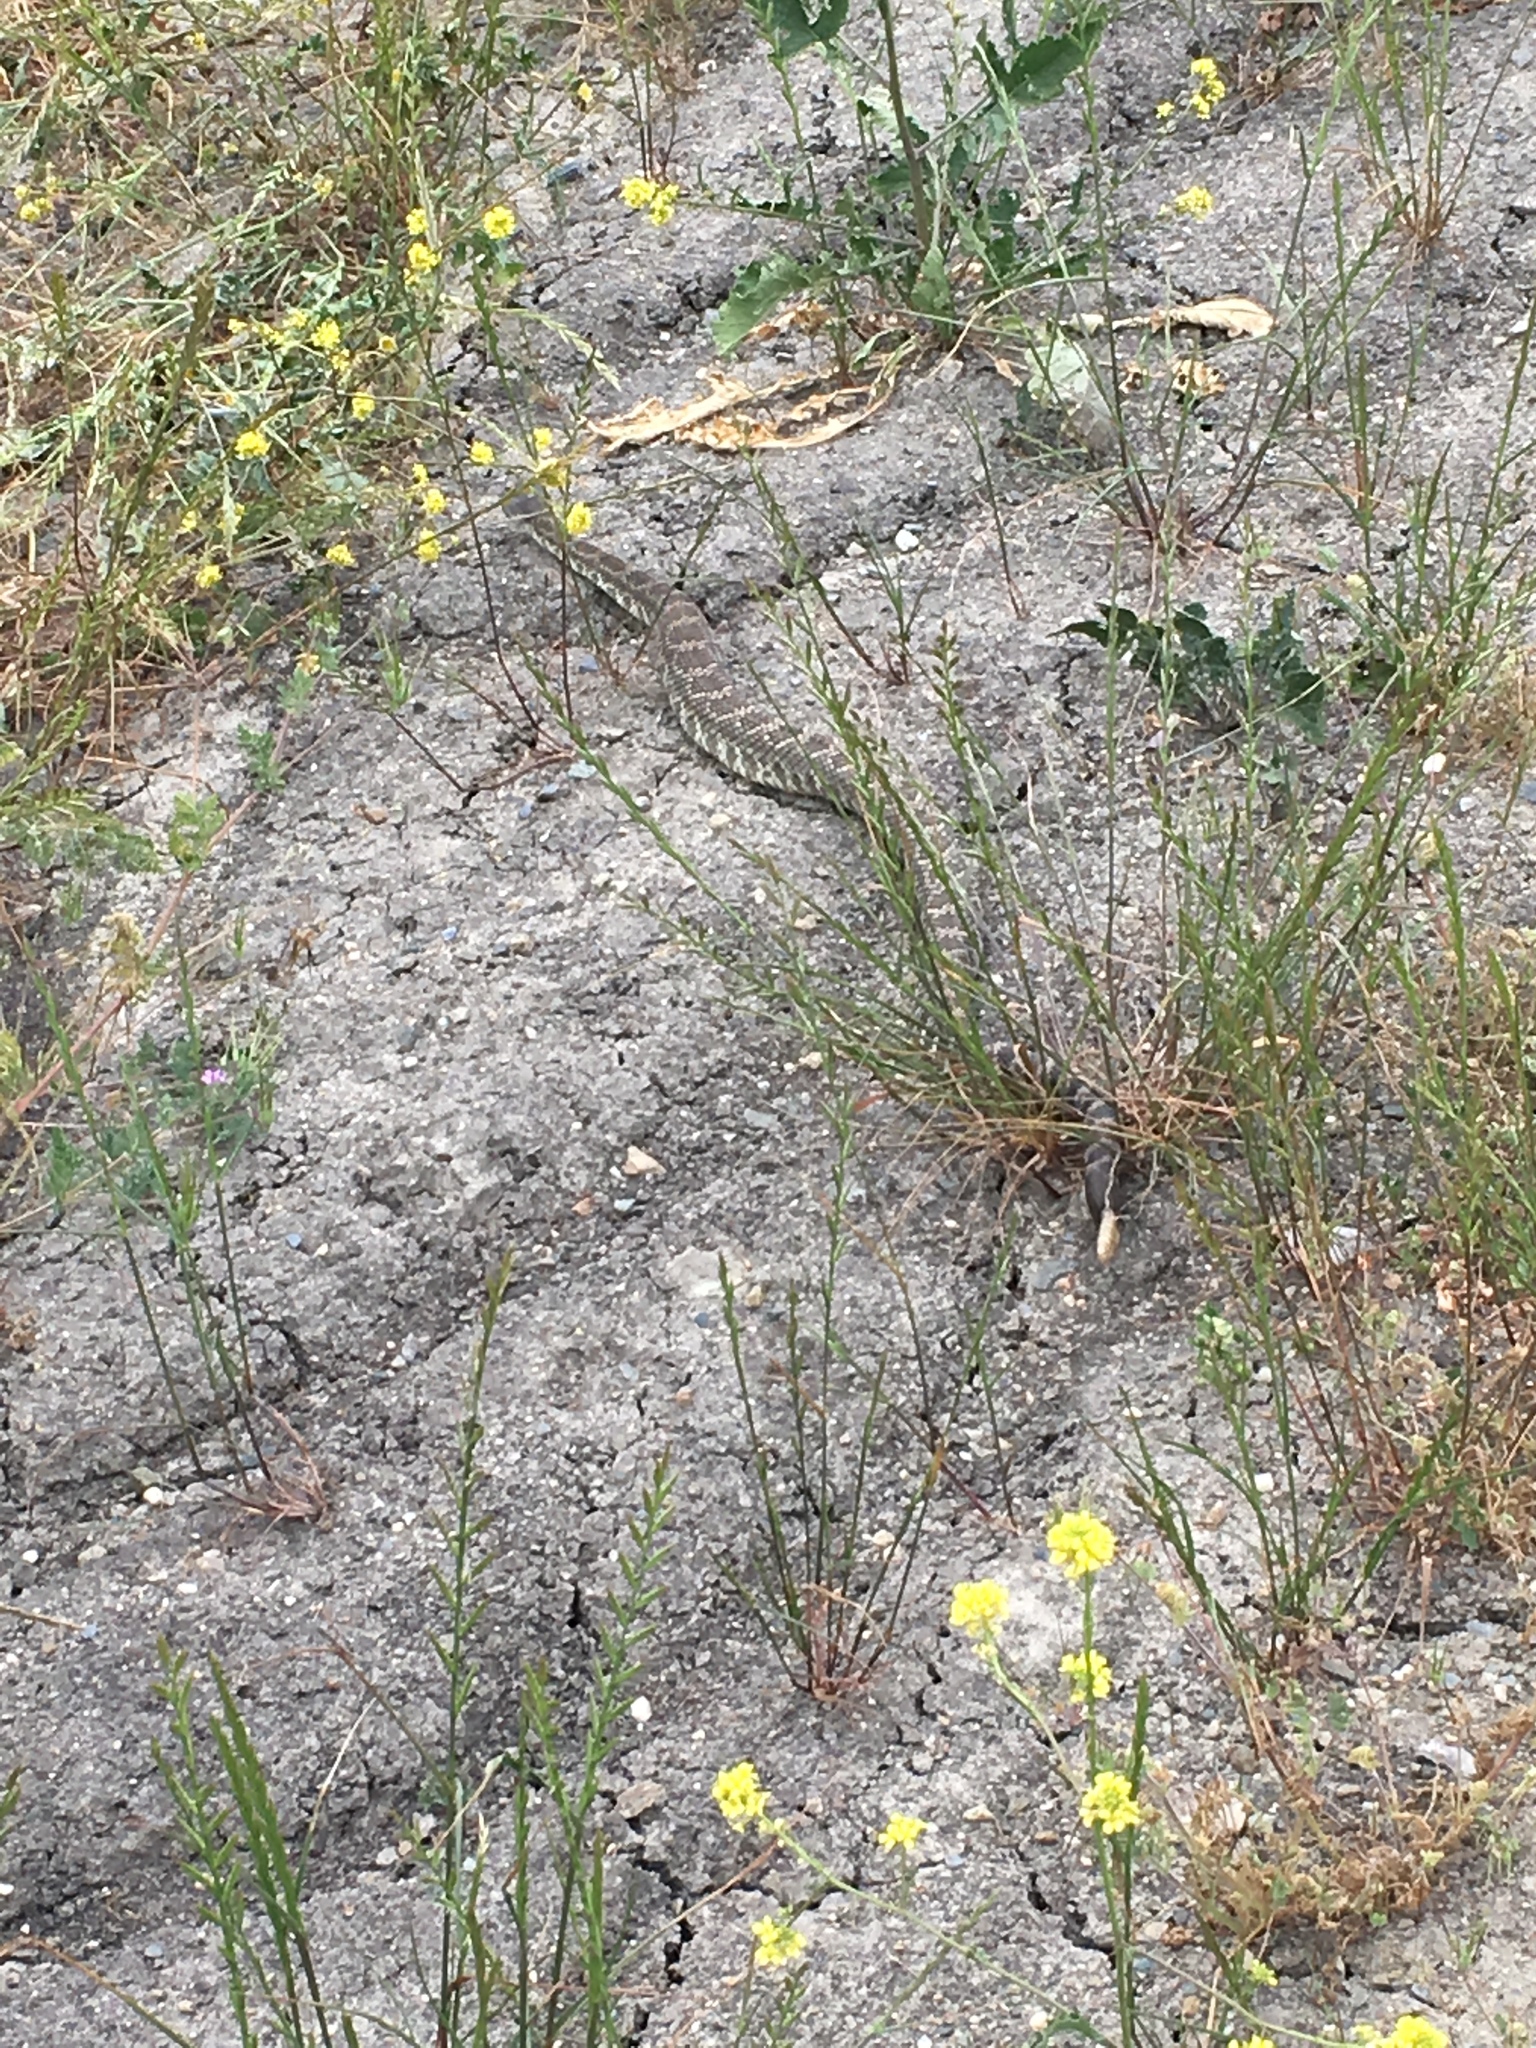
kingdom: Animalia
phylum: Chordata
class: Squamata
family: Viperidae
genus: Crotalus
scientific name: Crotalus oreganus
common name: Abyssus
